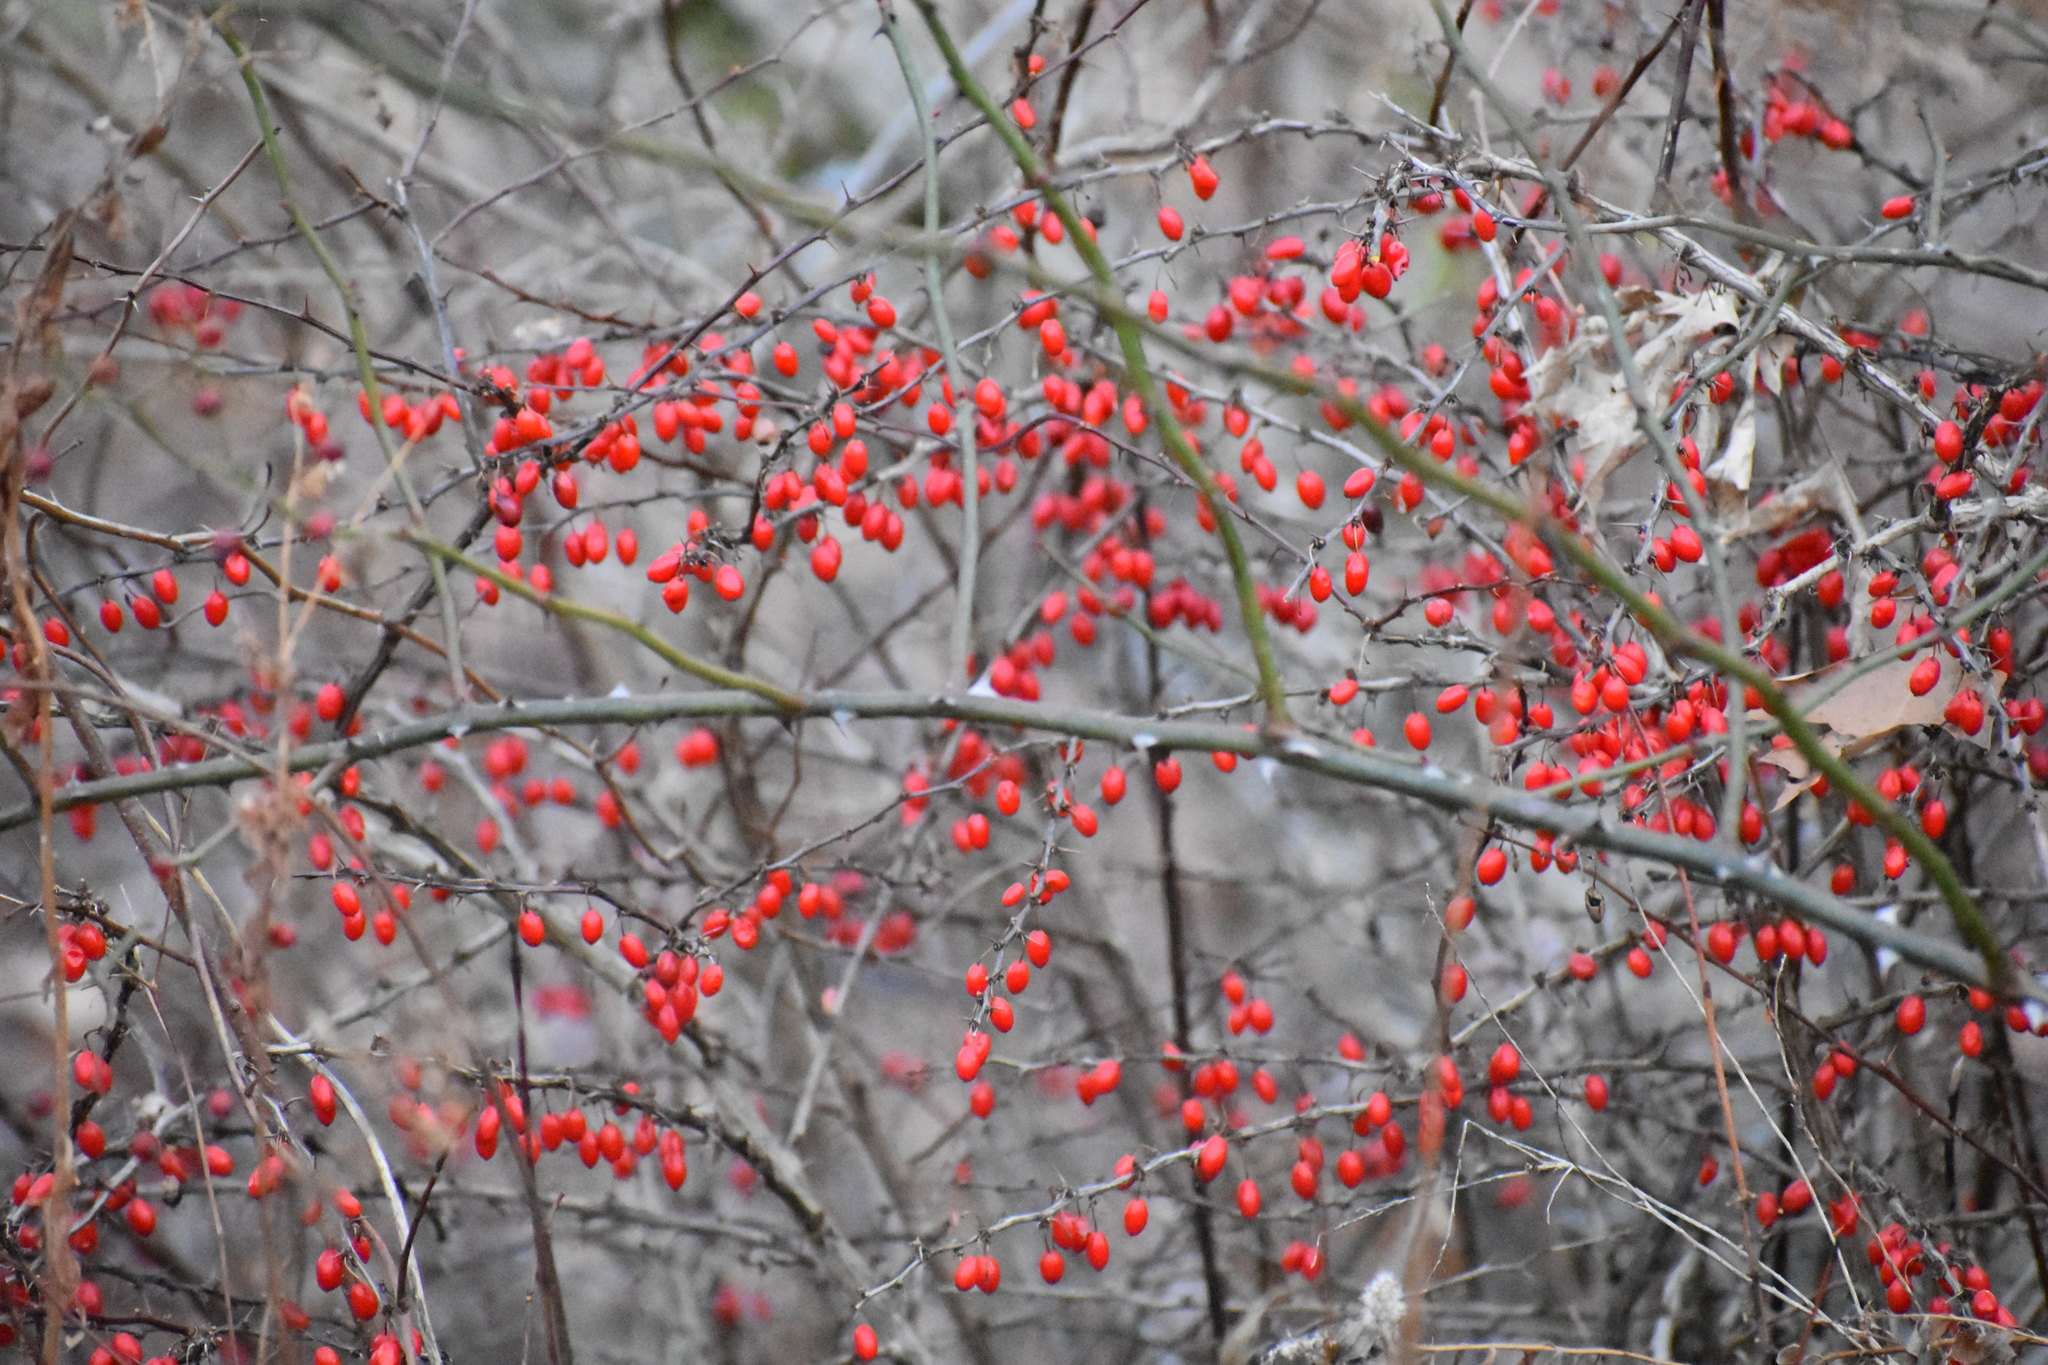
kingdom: Plantae
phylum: Tracheophyta
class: Magnoliopsida
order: Ranunculales
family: Berberidaceae
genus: Berberis
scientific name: Berberis thunbergii
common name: Japanese barberry
